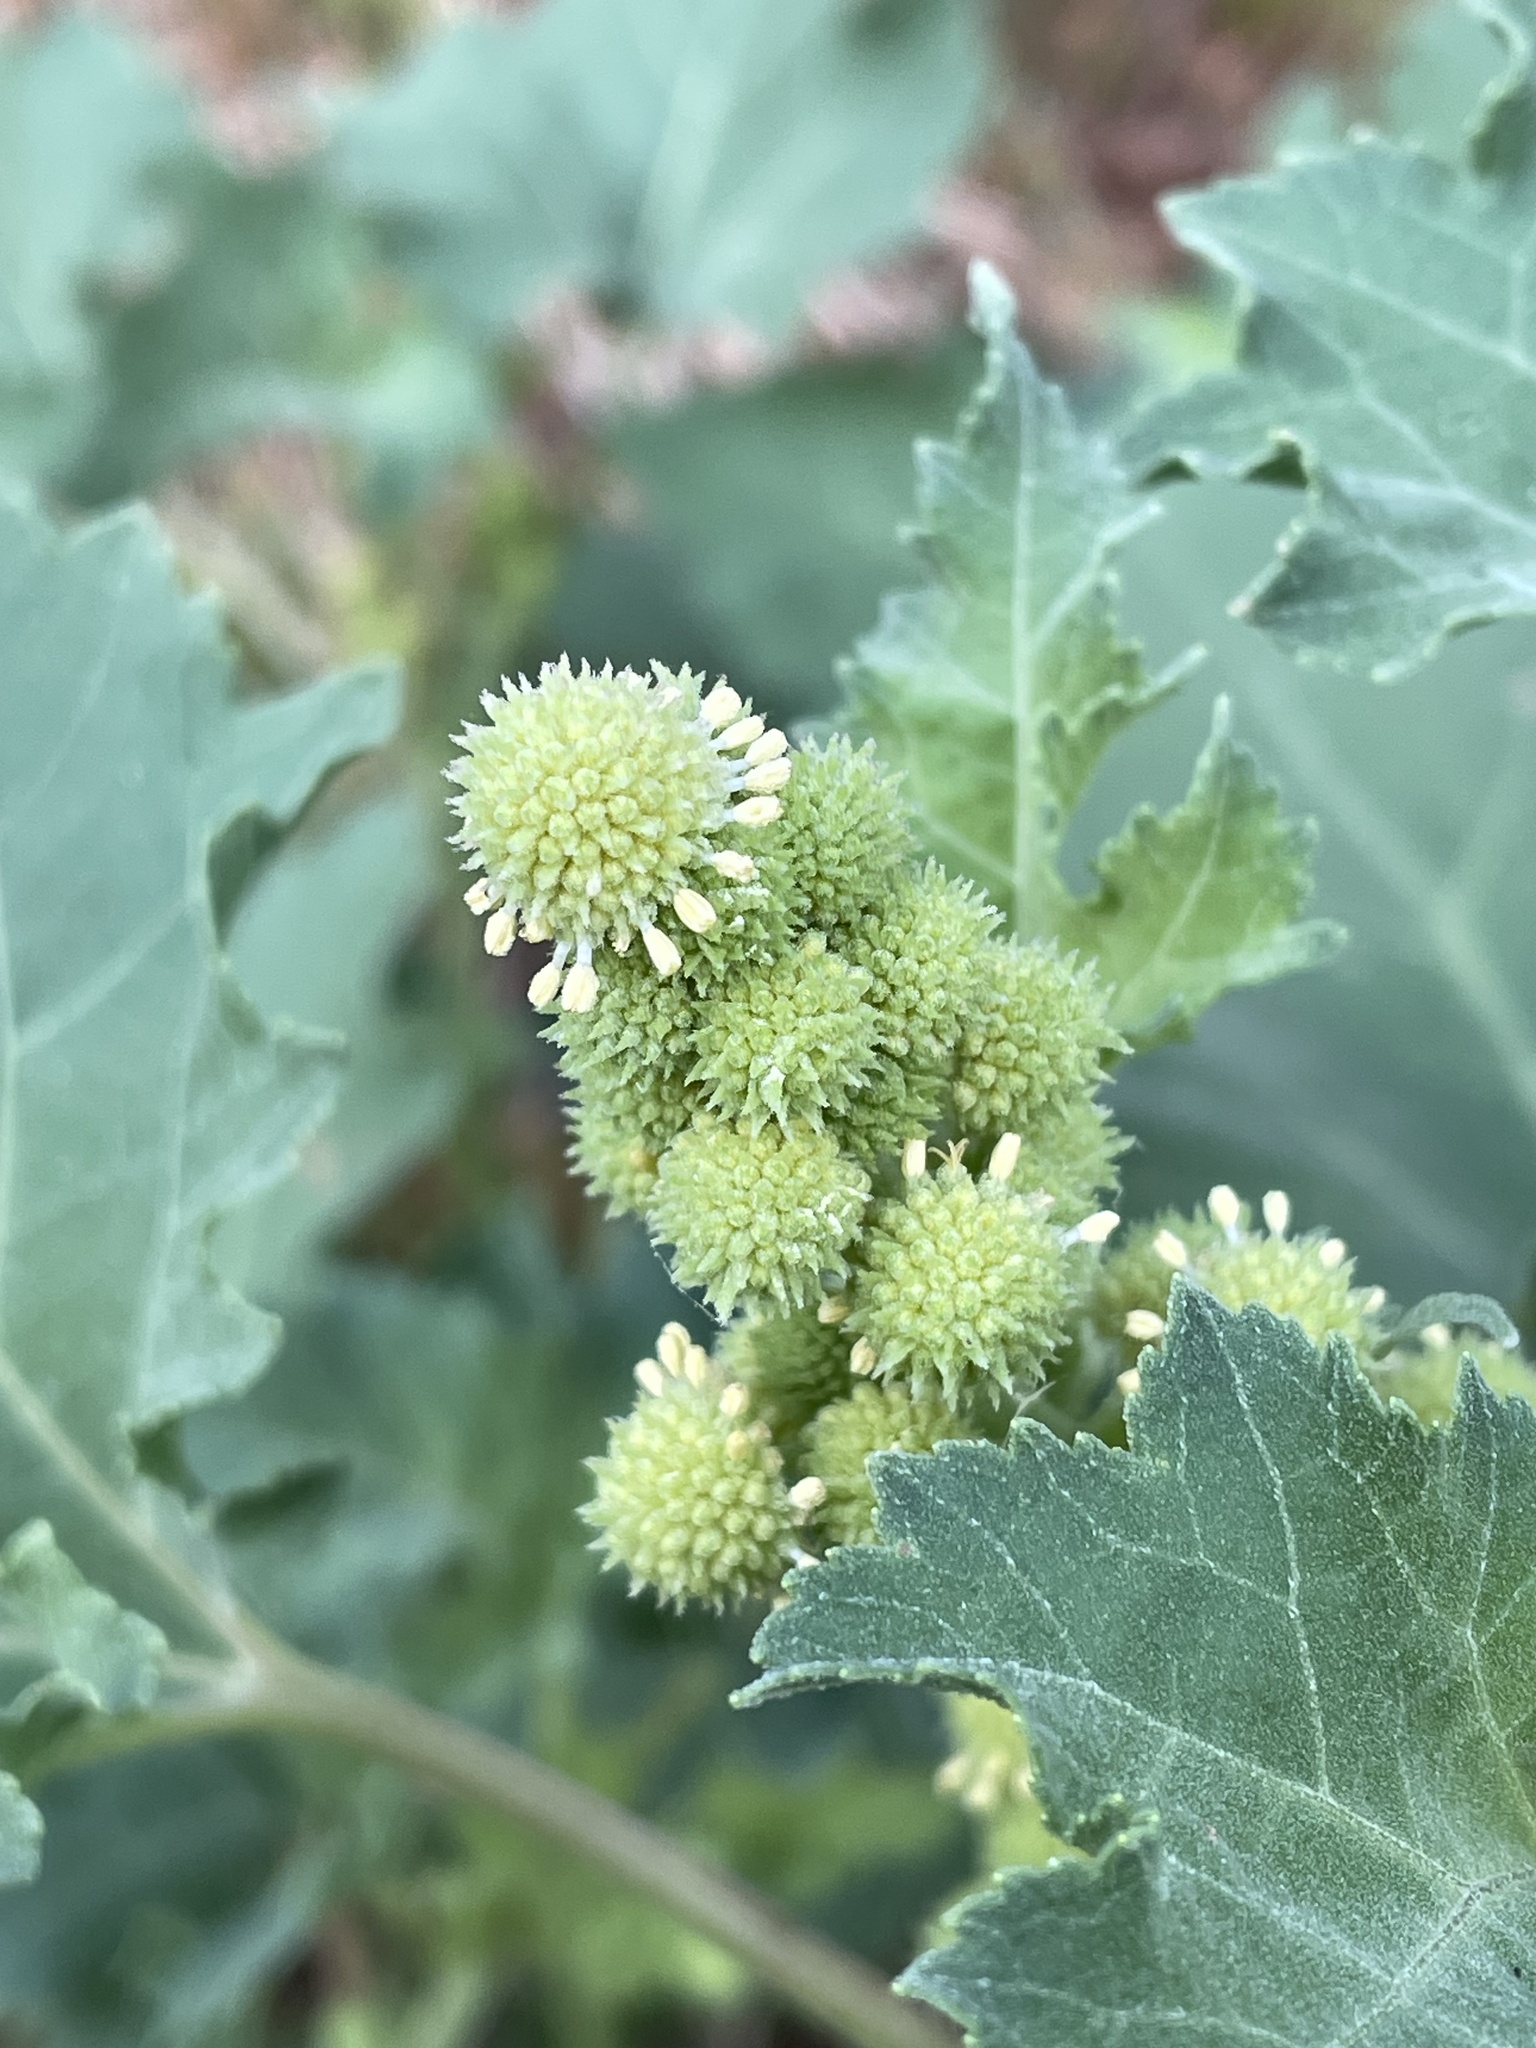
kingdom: Plantae
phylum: Tracheophyta
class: Magnoliopsida
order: Asterales
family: Asteraceae
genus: Xanthium
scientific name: Xanthium strumarium
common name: Rough cocklebur
